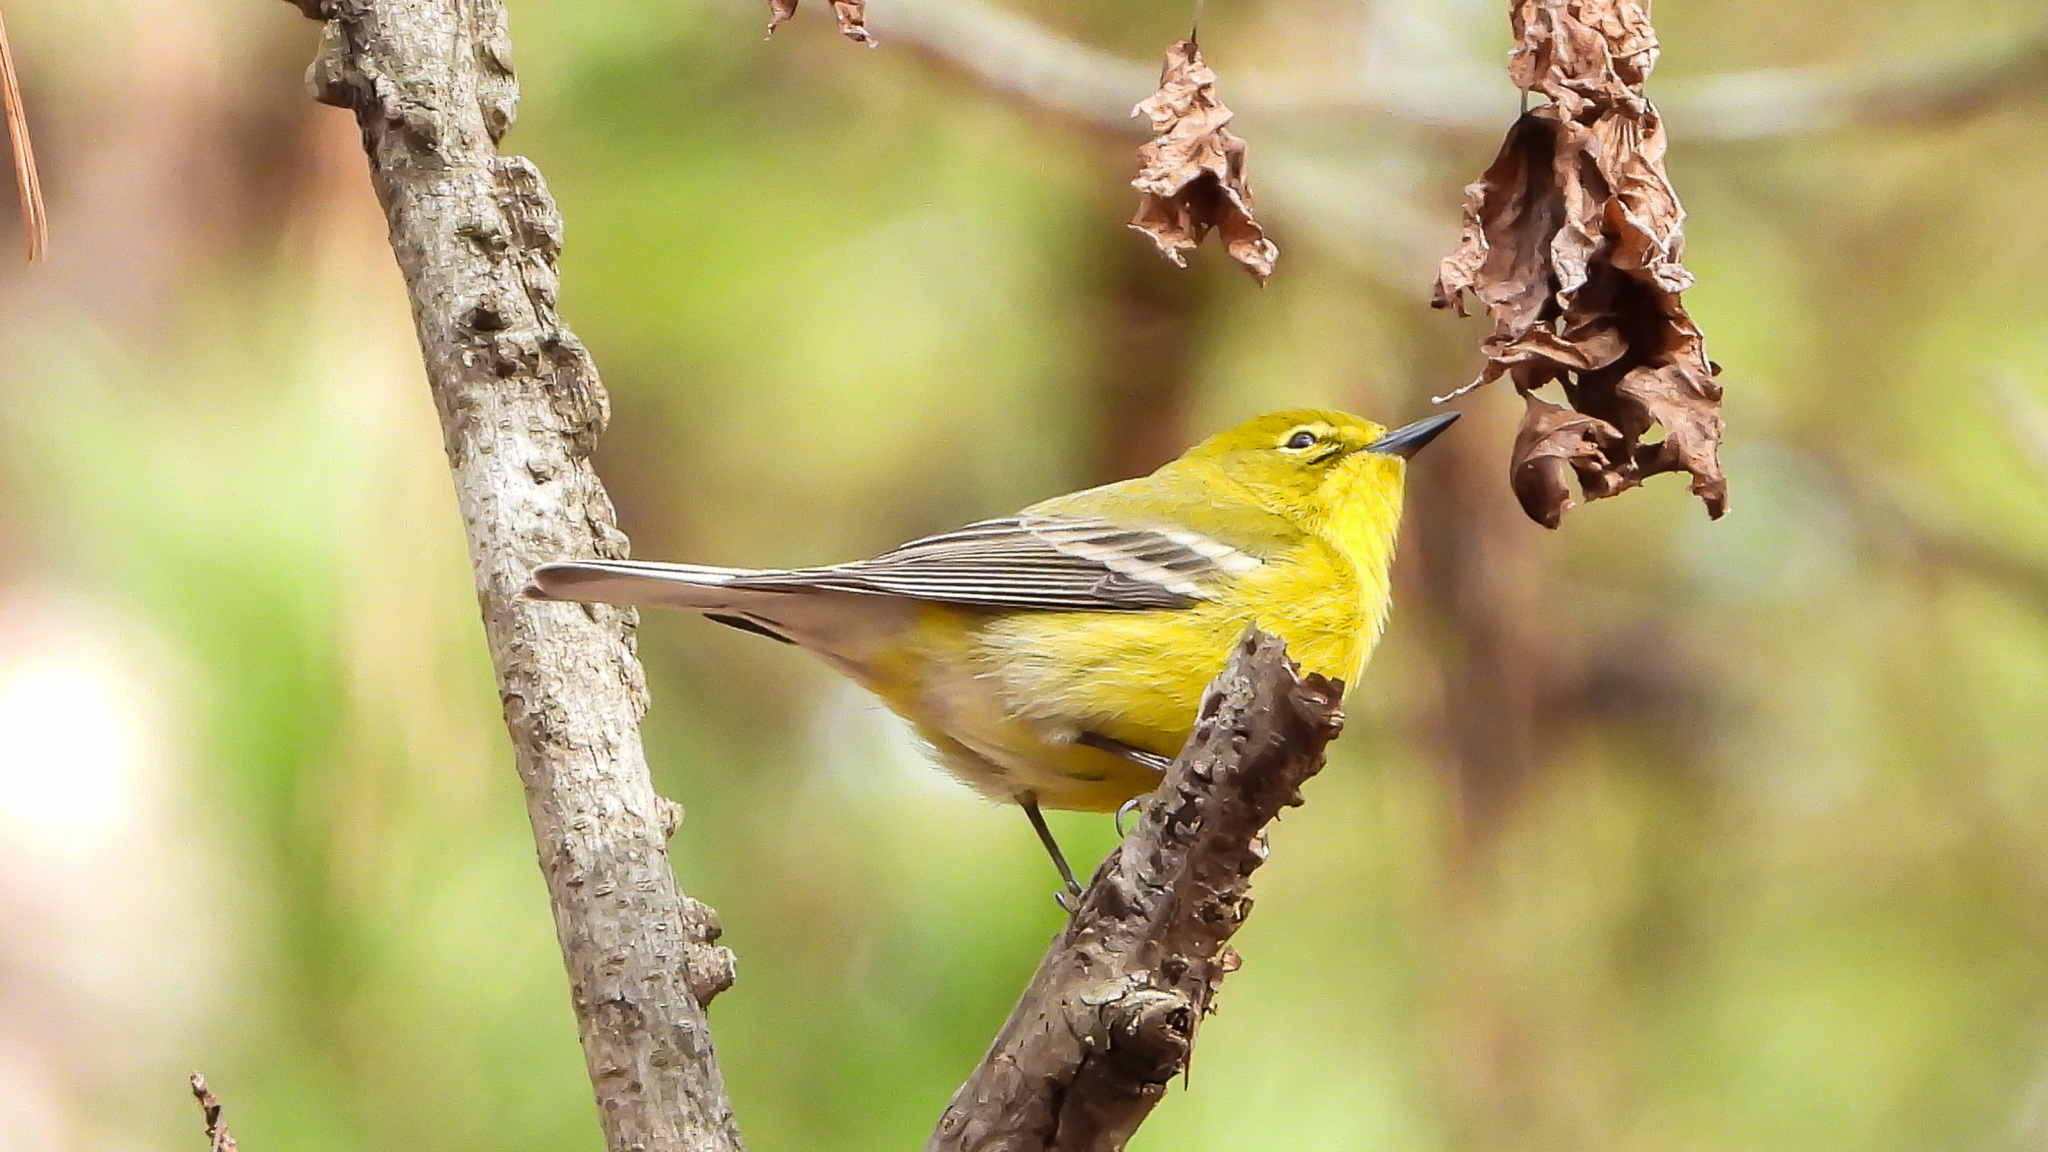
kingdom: Animalia
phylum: Chordata
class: Aves
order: Passeriformes
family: Parulidae
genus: Setophaga
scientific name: Setophaga pinus
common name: Pine warbler
